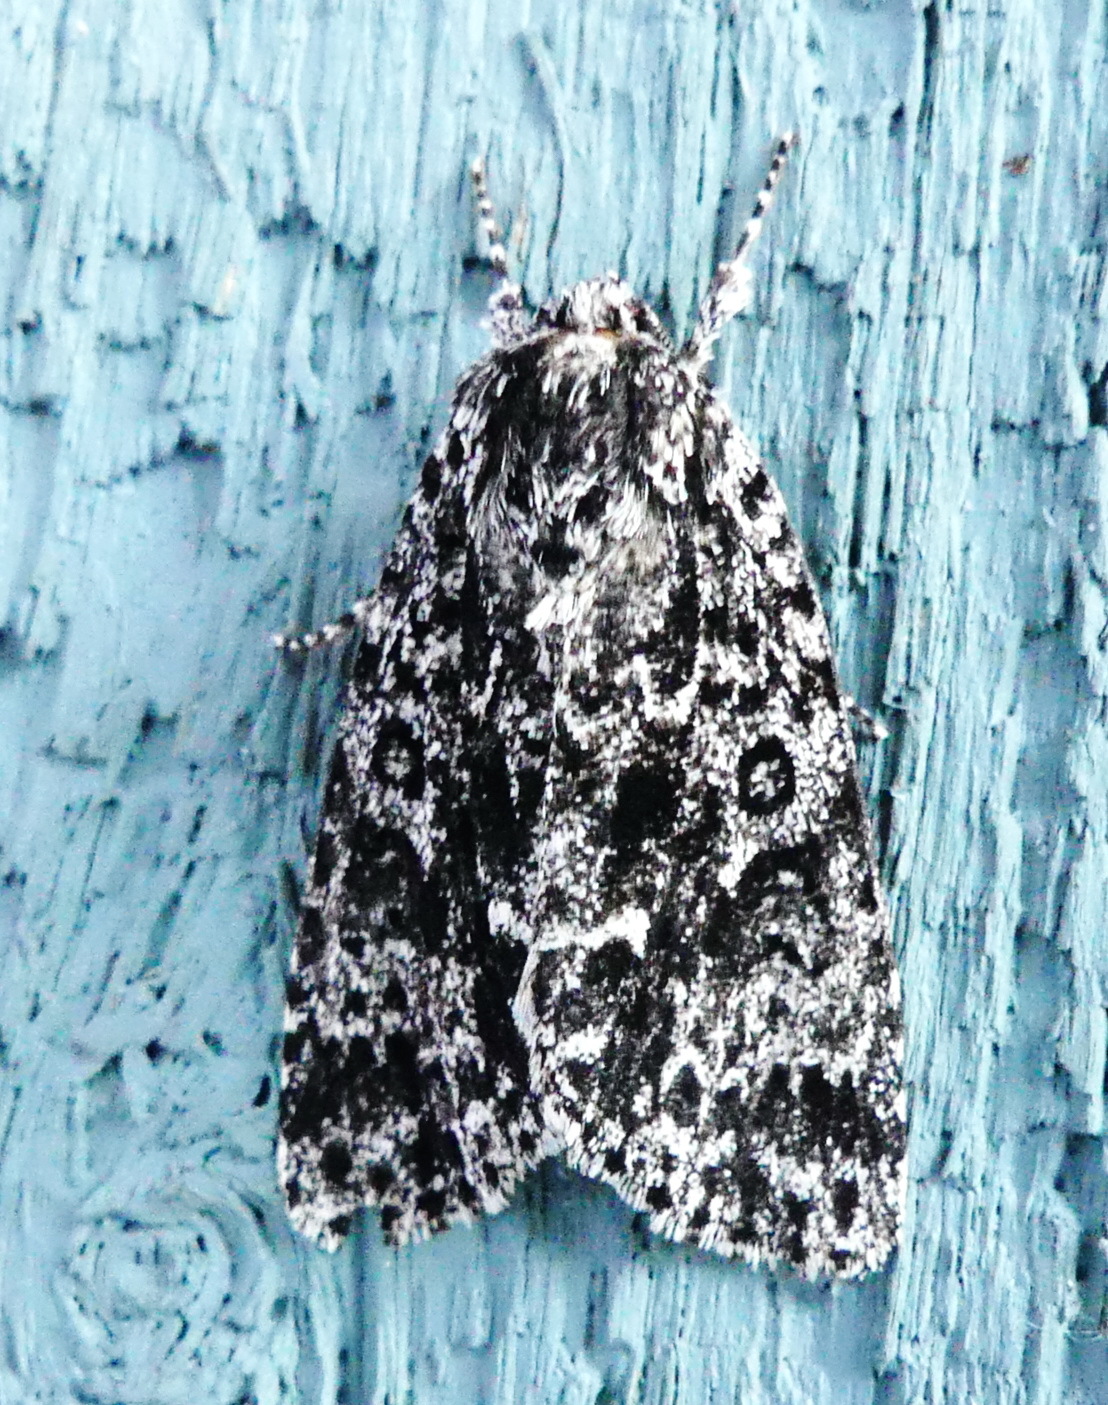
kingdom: Animalia
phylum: Arthropoda
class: Insecta
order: Lepidoptera
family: Noctuidae
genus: Acronicta
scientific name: Acronicta noctivaga
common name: Night-wandering dagger
